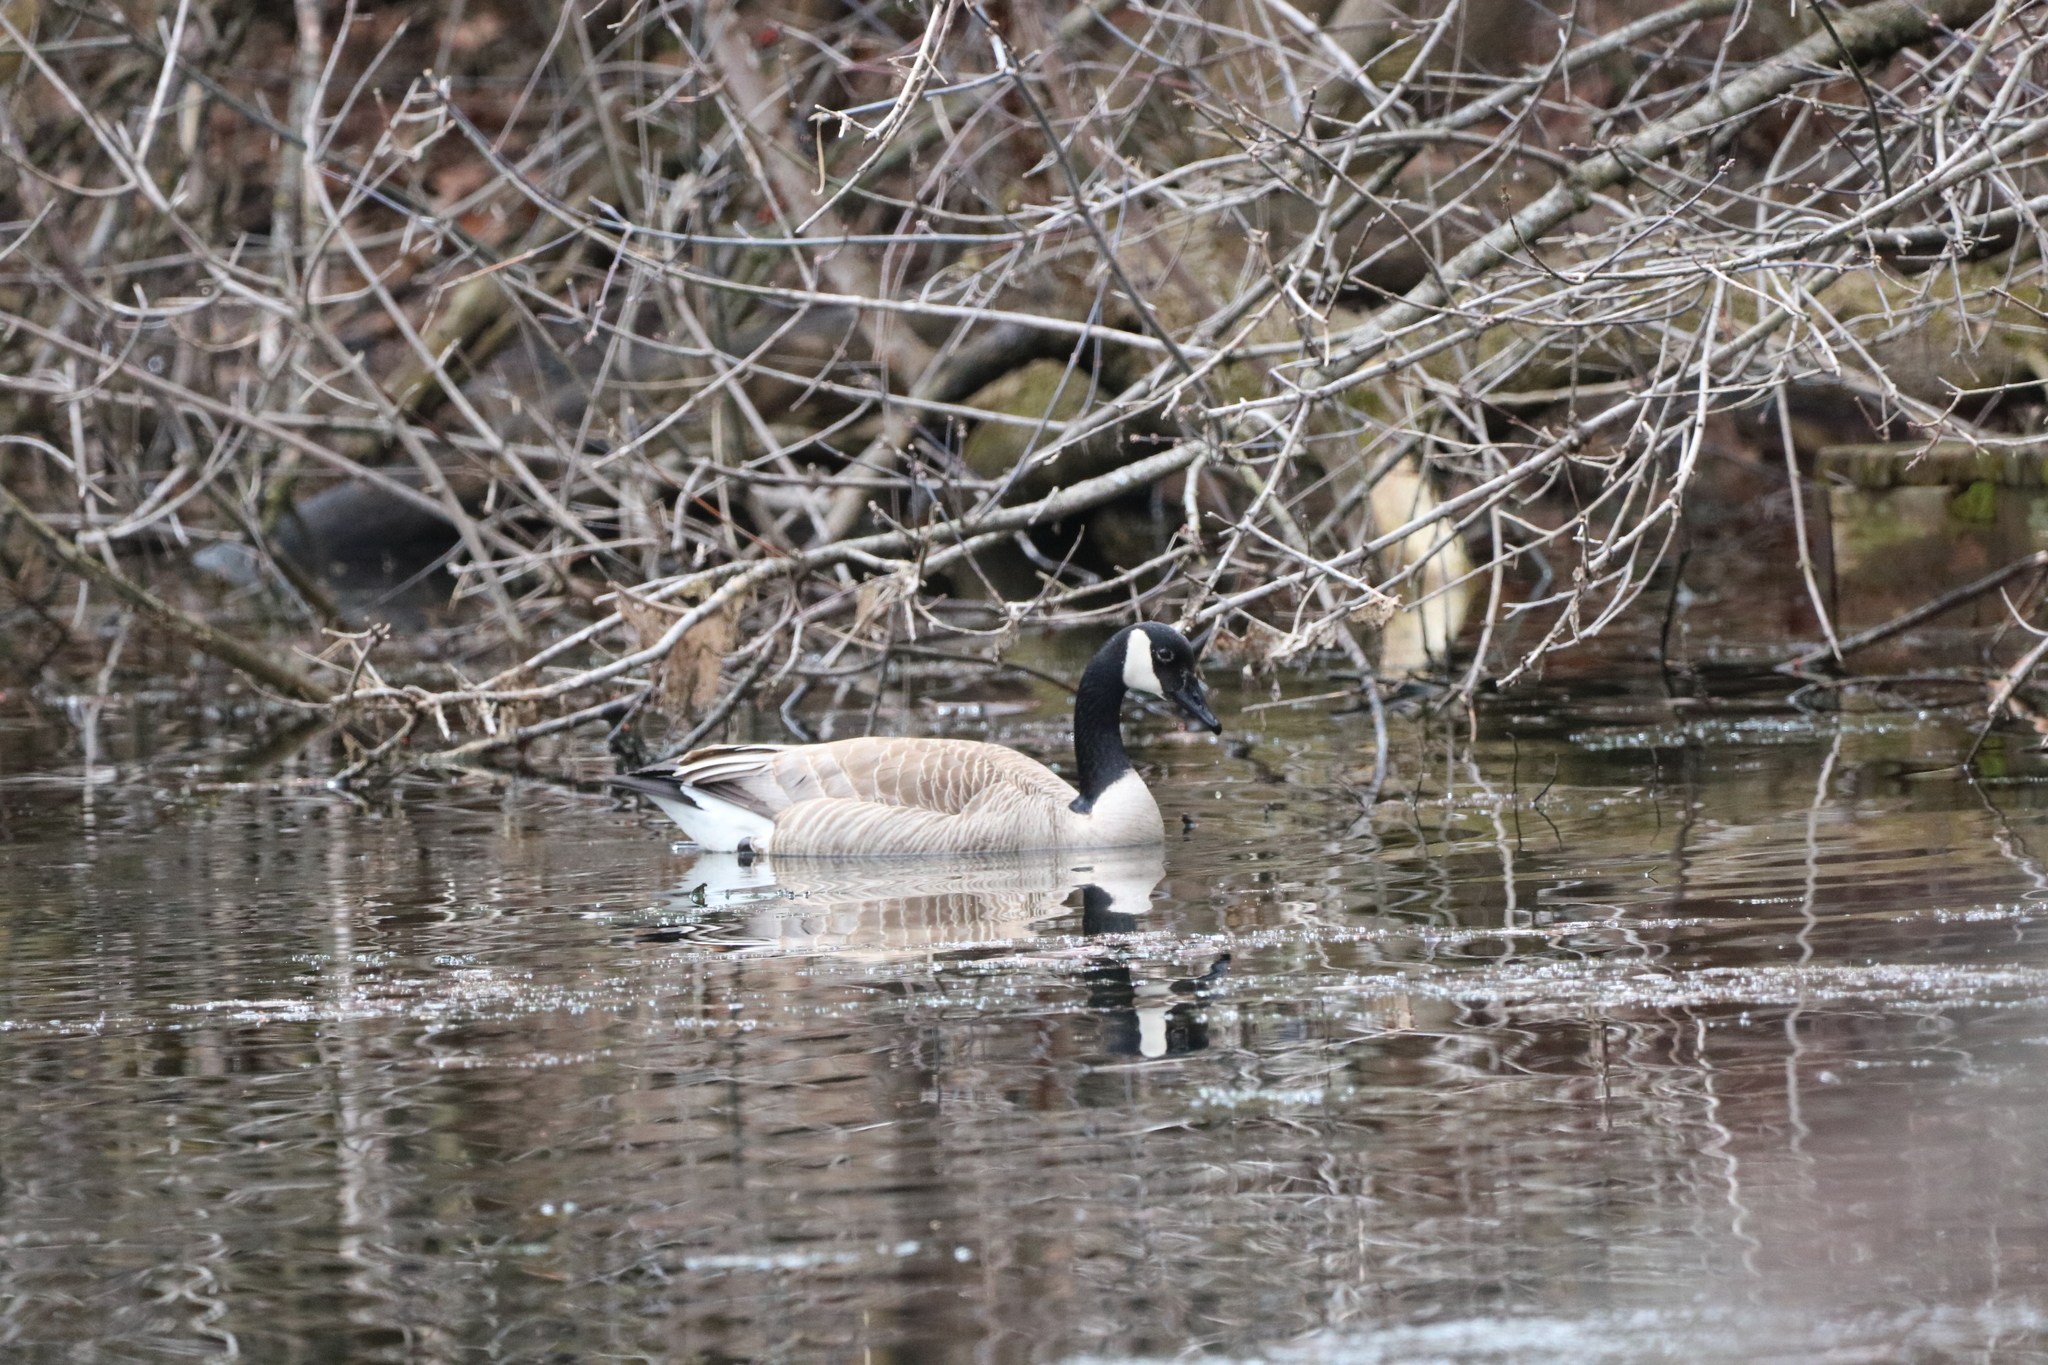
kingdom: Animalia
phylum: Chordata
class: Aves
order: Anseriformes
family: Anatidae
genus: Branta
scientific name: Branta canadensis
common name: Canada goose
